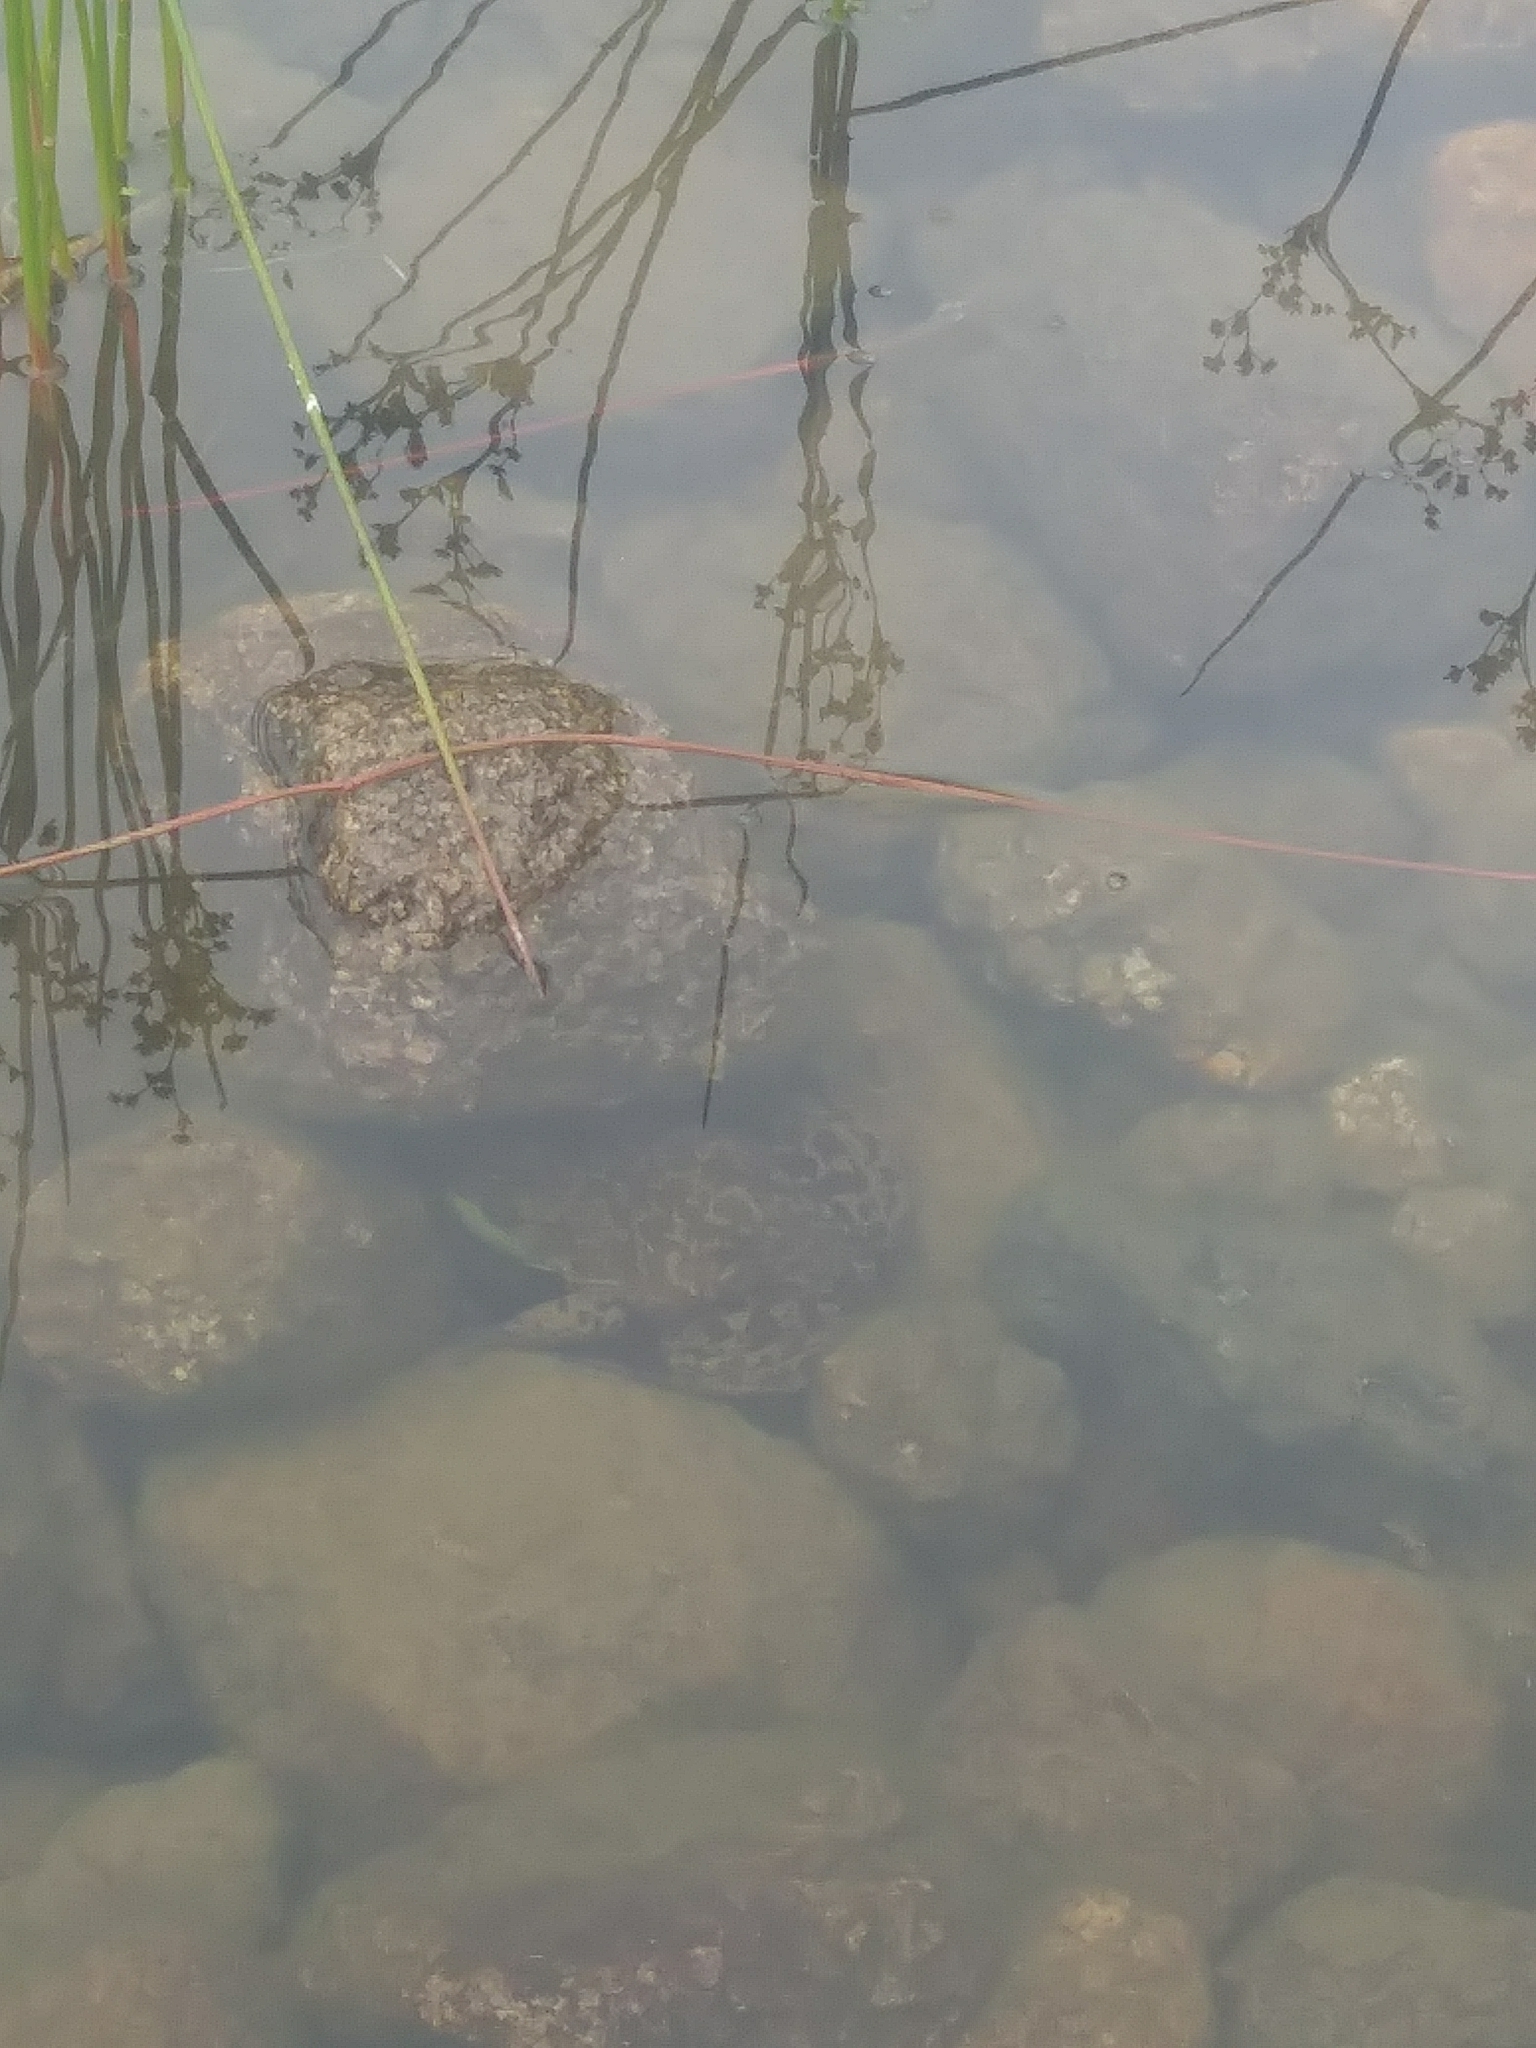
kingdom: Animalia
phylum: Chordata
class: Amphibia
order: Anura
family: Ranidae
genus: Lithobates
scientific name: Lithobates catesbeianus
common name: American bullfrog
